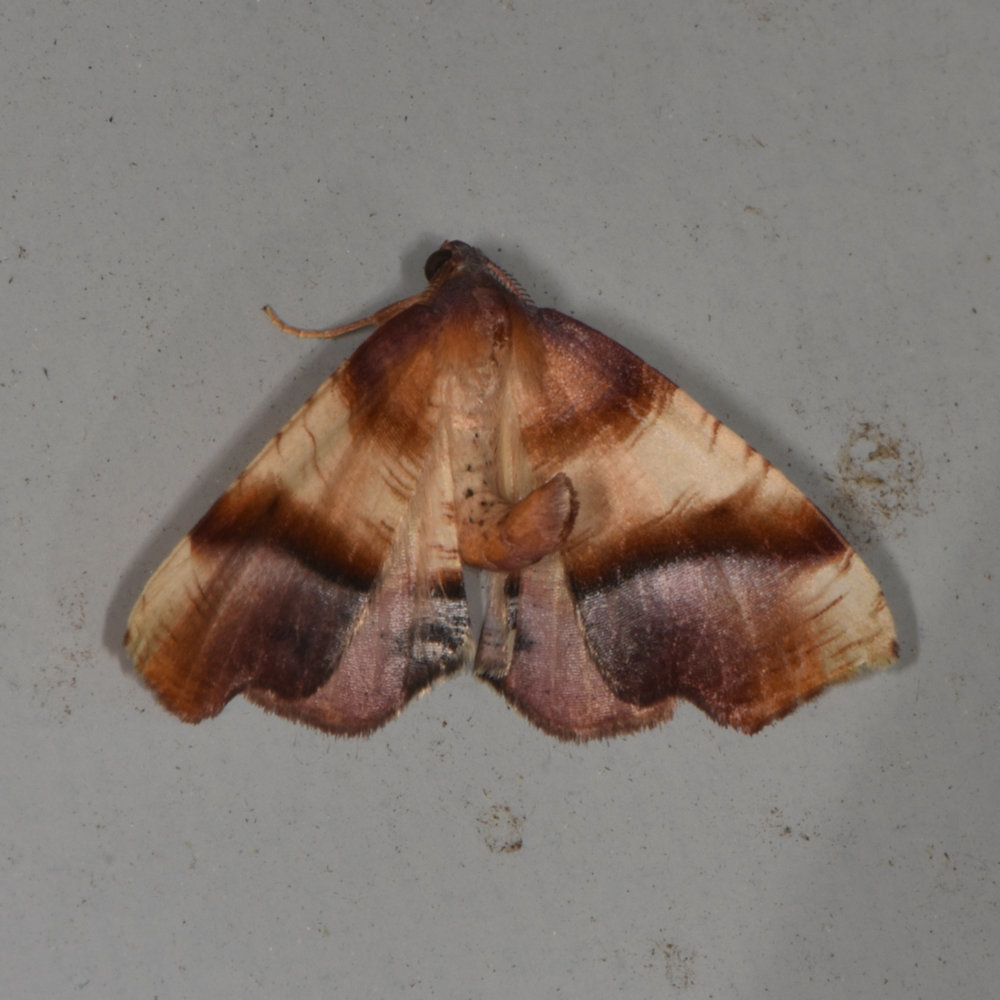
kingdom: Animalia
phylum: Arthropoda
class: Insecta
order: Lepidoptera
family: Geometridae
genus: Plagodis
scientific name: Plagodis phlogosaria
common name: Straight-lined plagodis
